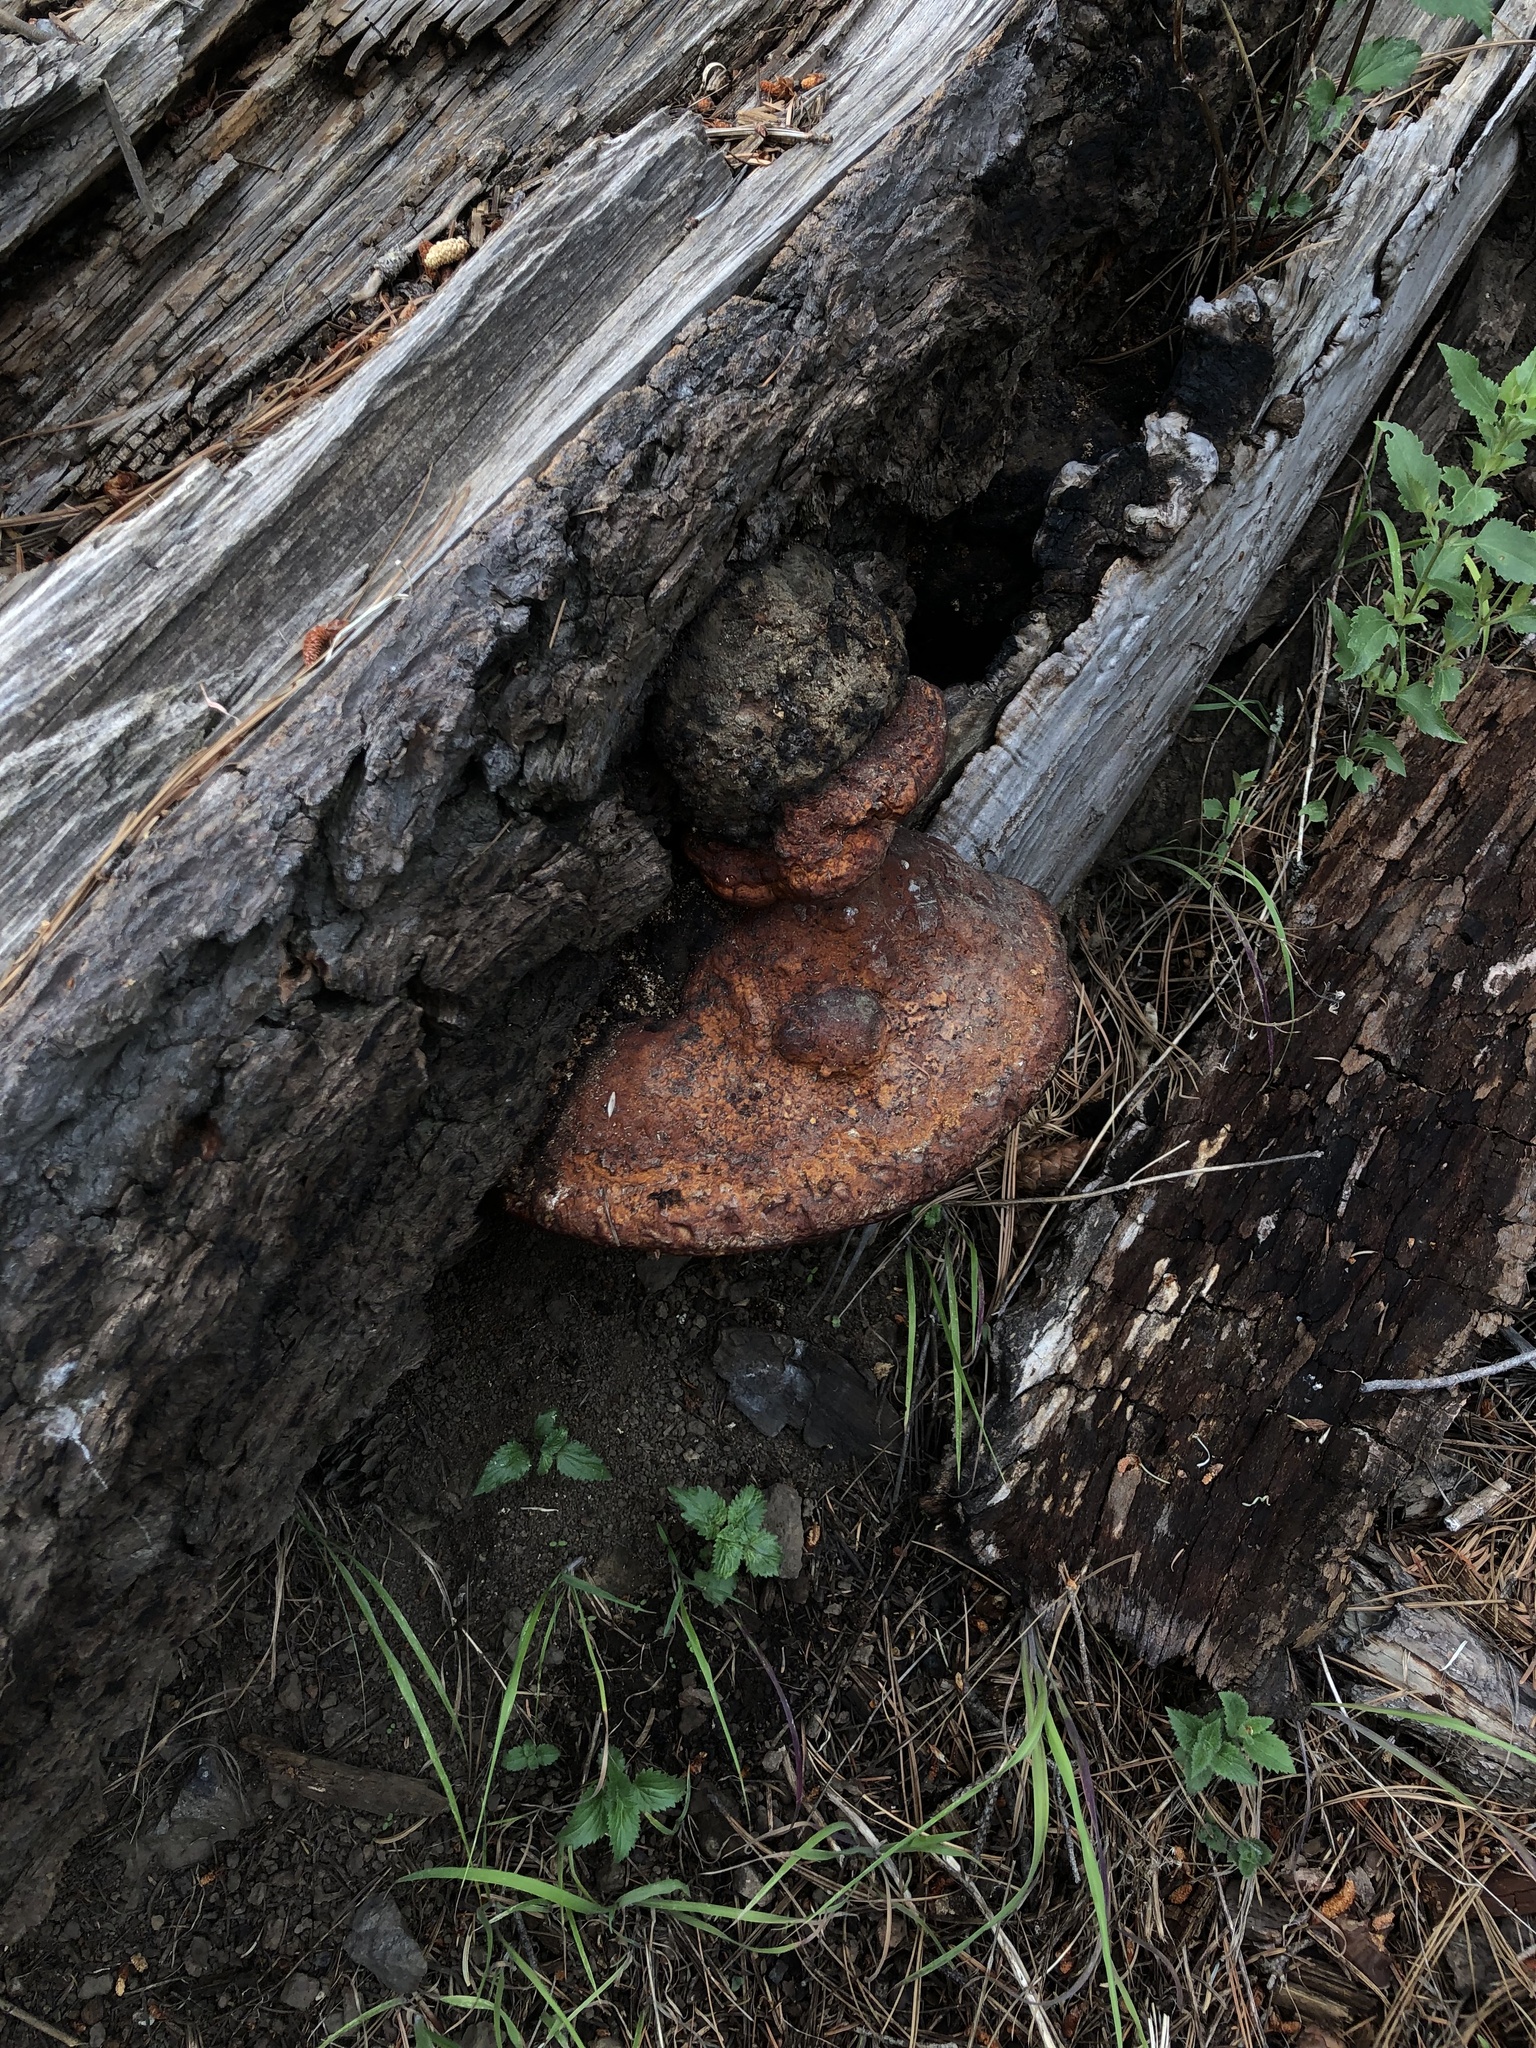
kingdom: Fungi
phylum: Basidiomycota
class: Agaricomycetes
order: Polyporales
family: Fomitopsidaceae
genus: Fomitopsis
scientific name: Fomitopsis schrenkii
